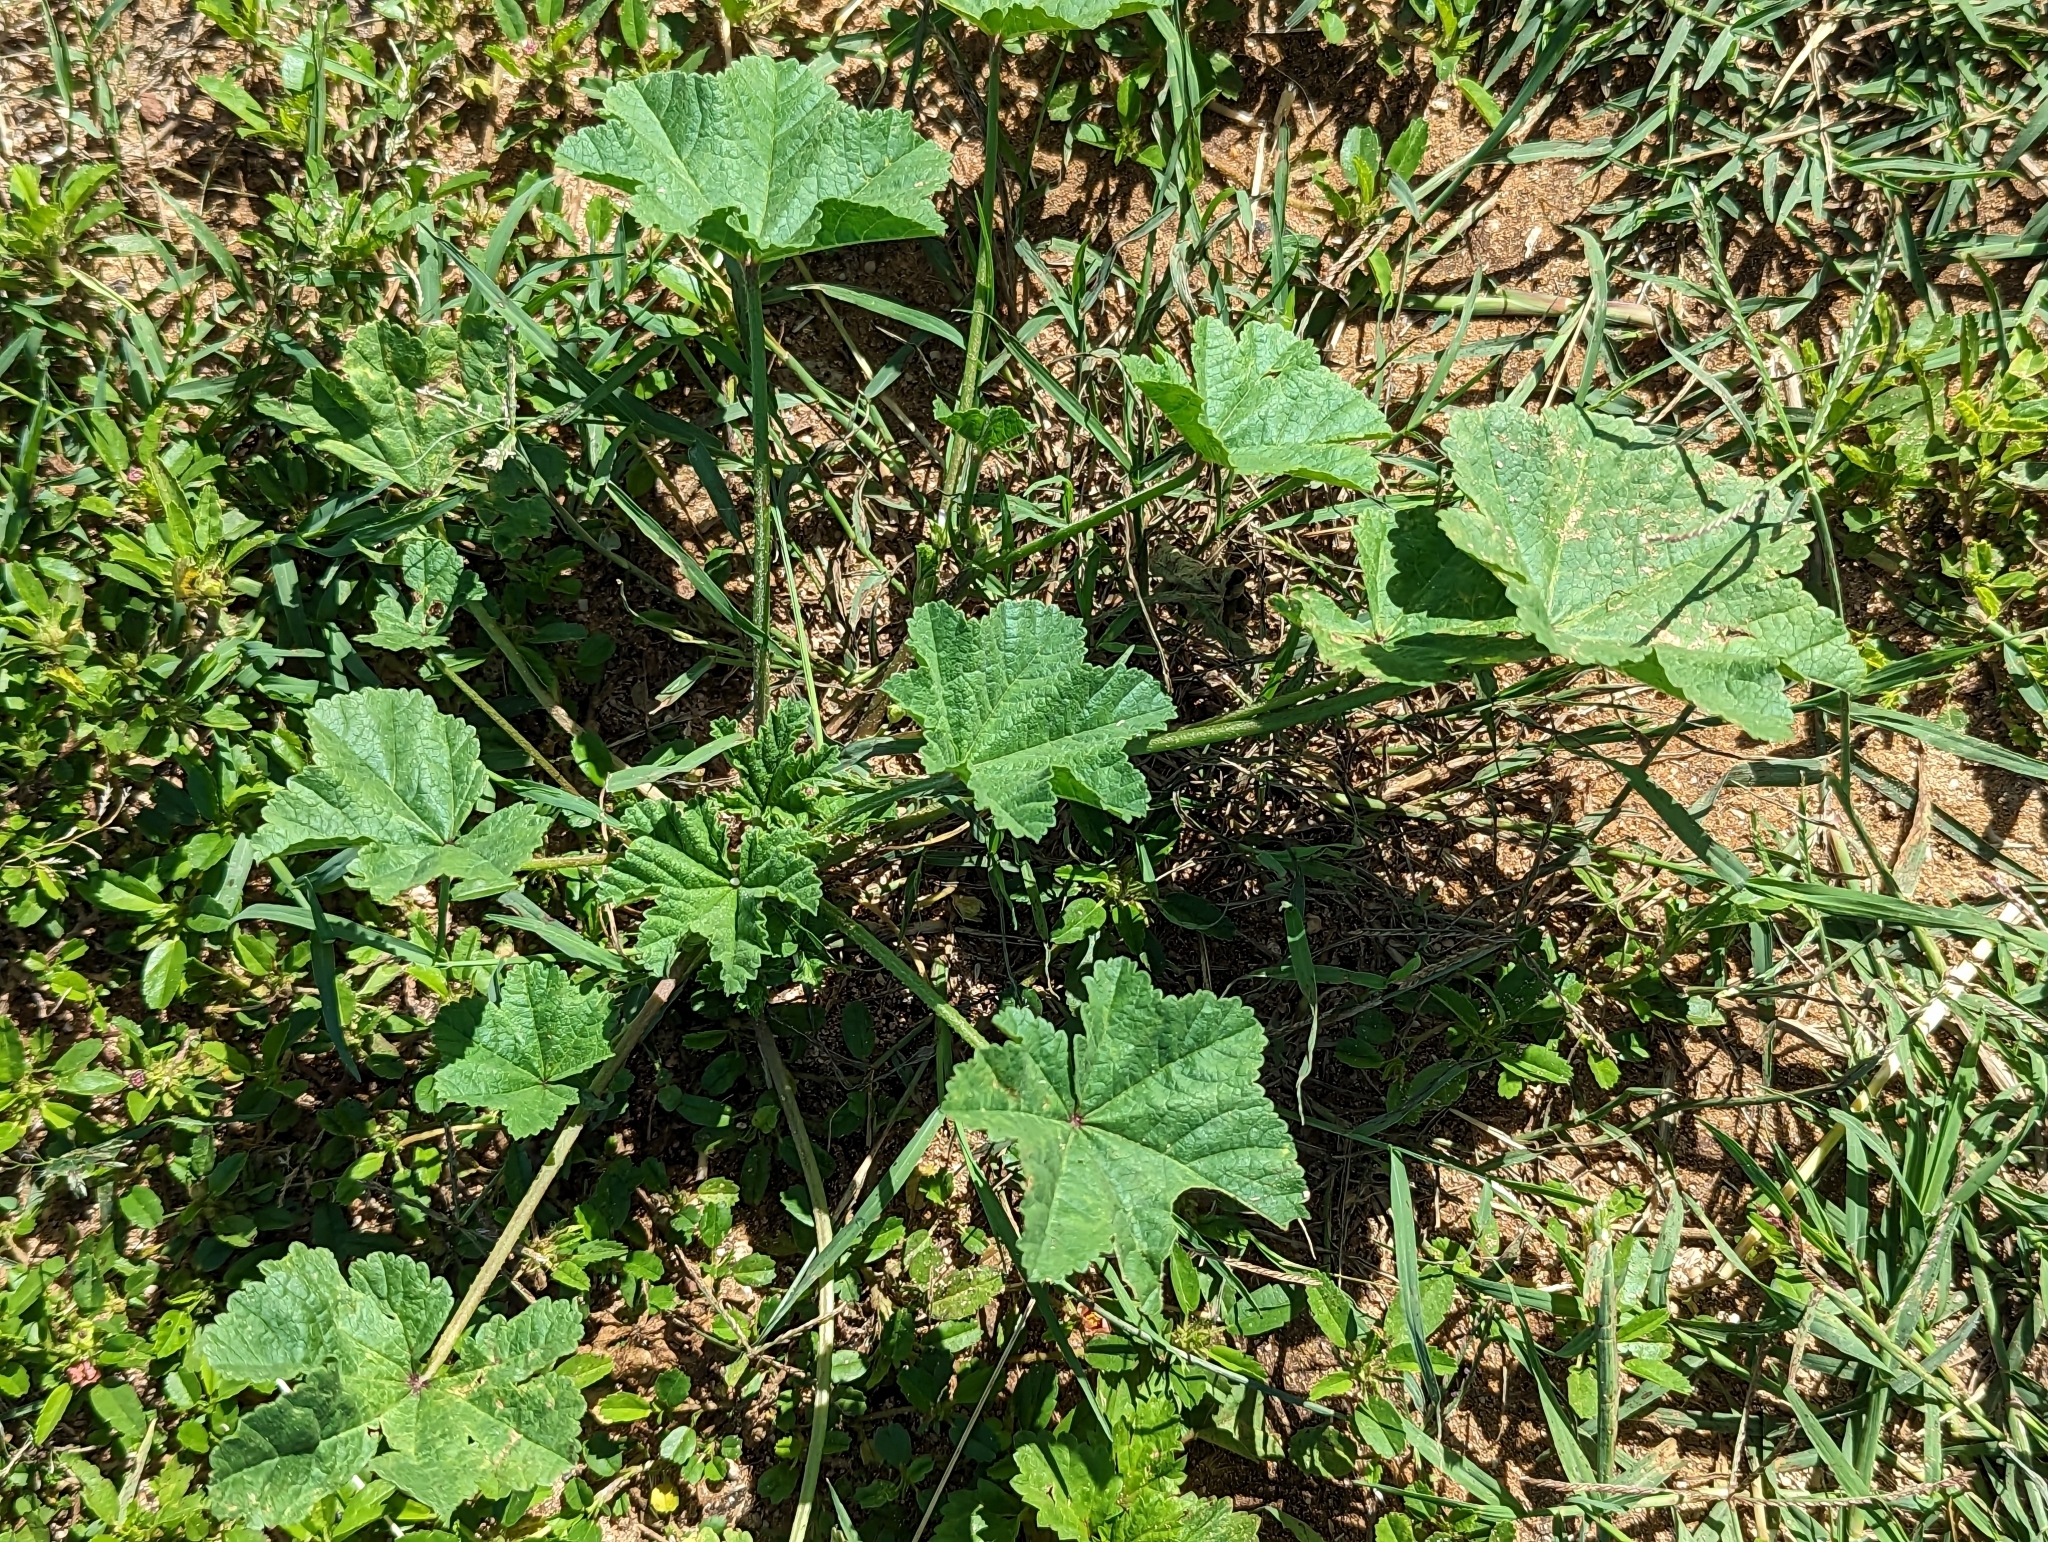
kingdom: Plantae
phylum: Tracheophyta
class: Magnoliopsida
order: Malvales
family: Malvaceae
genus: Malva
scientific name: Malva parviflora
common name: Least mallow
